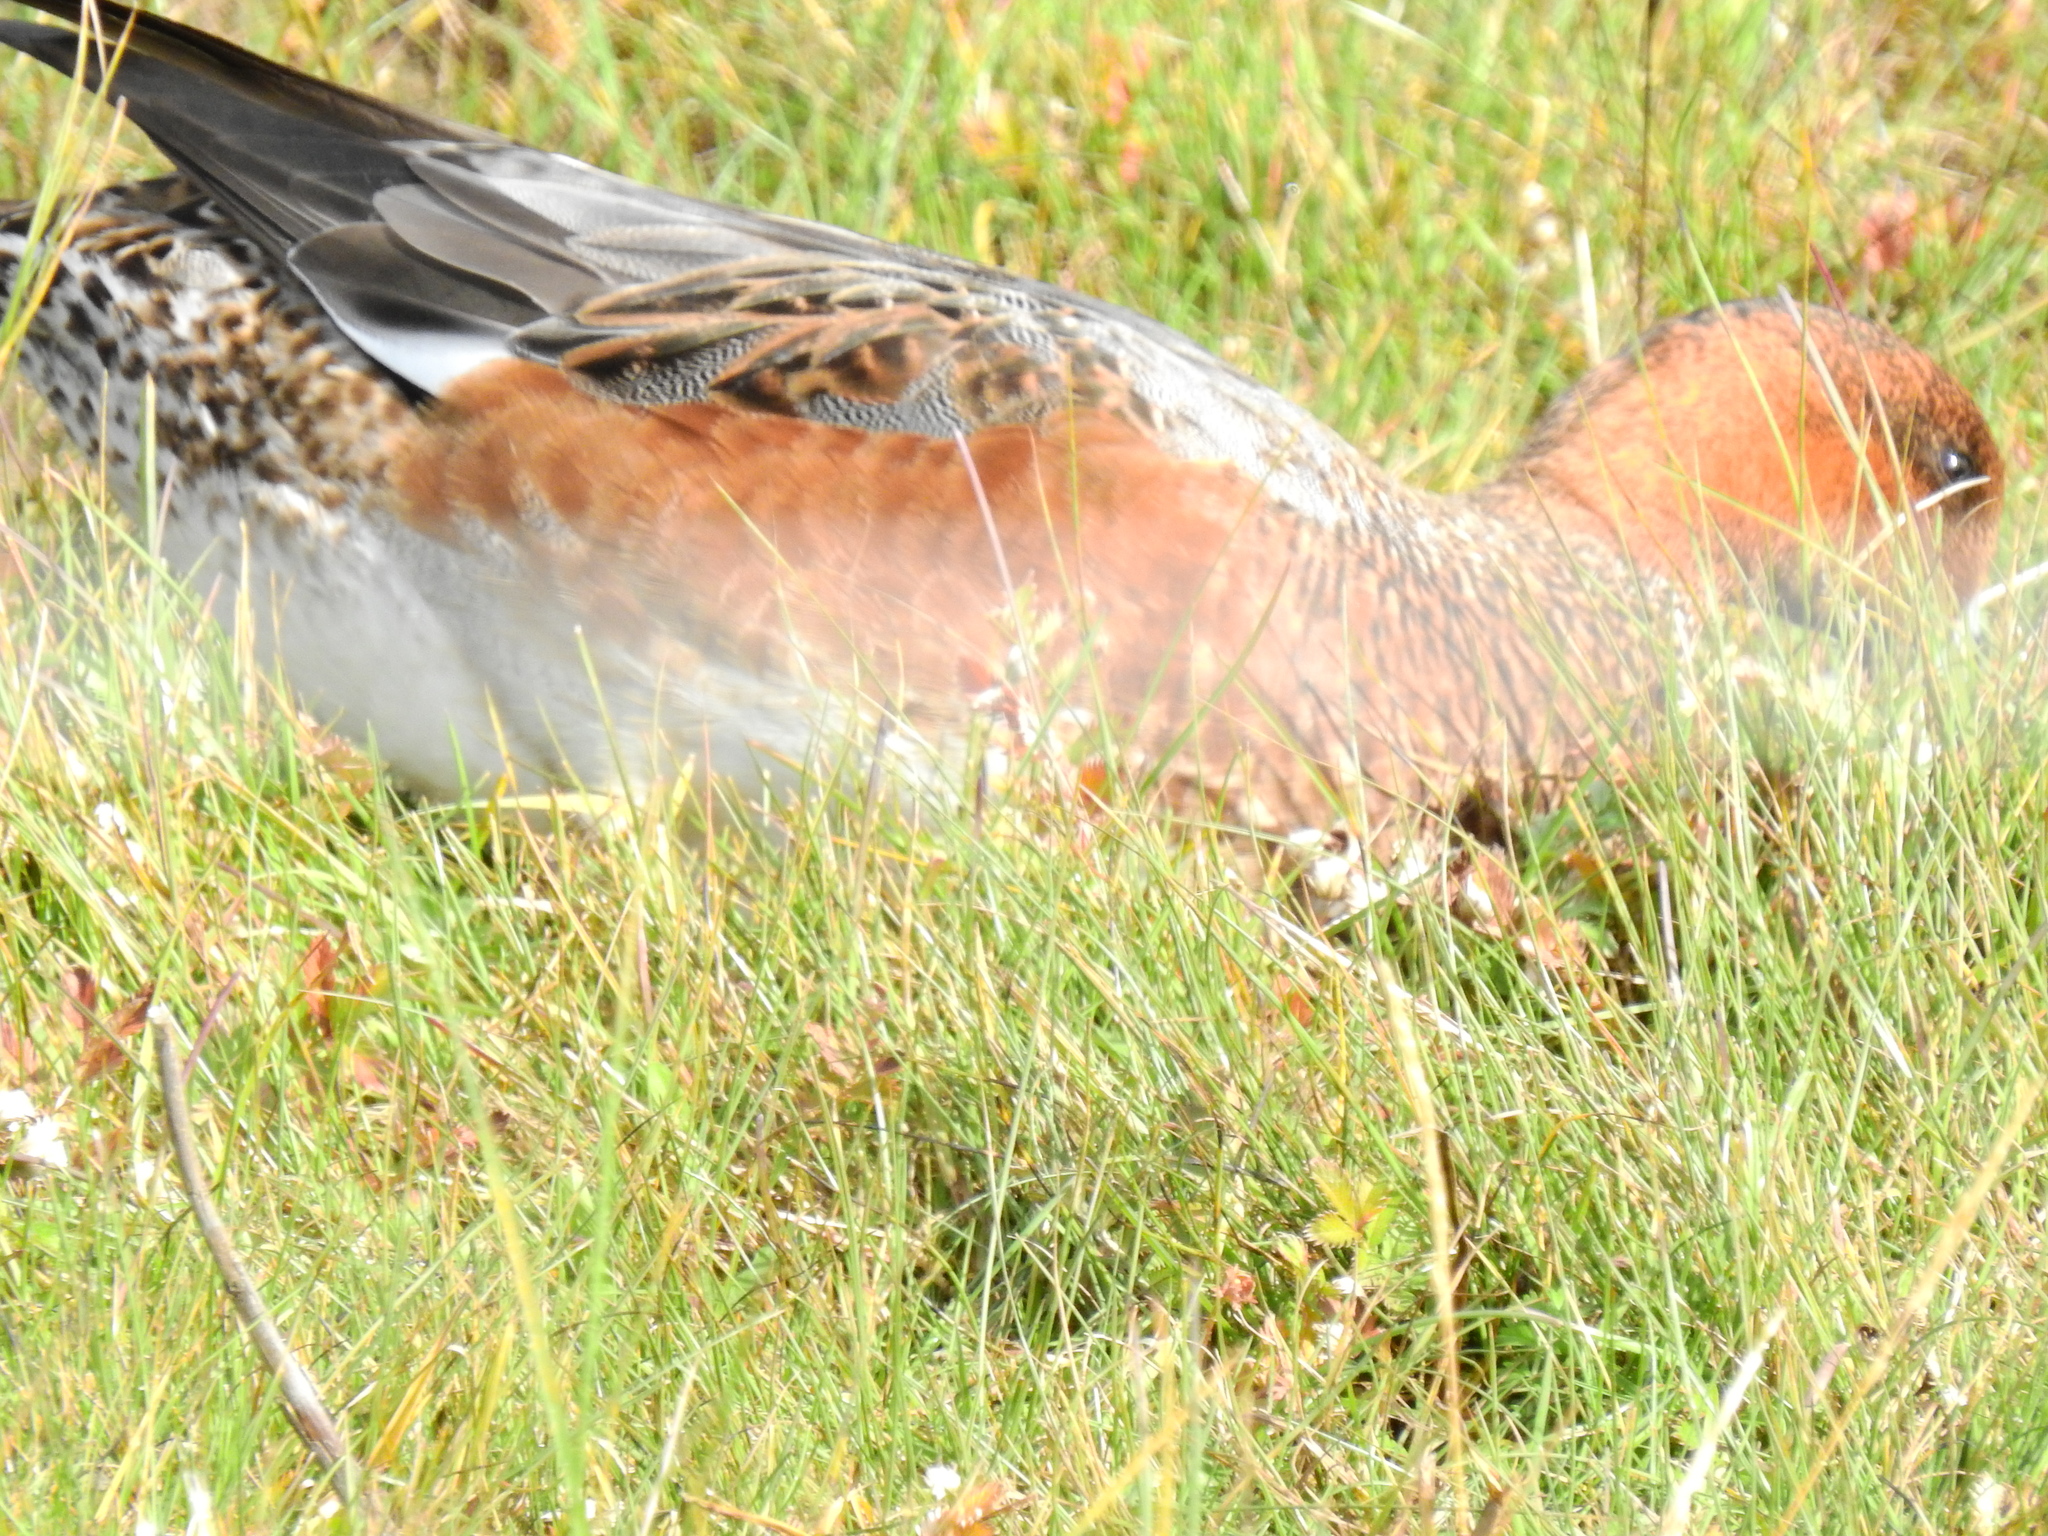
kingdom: Animalia
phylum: Chordata
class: Aves
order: Anseriformes
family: Anatidae
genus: Mareca
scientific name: Mareca penelope
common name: Eurasian wigeon
